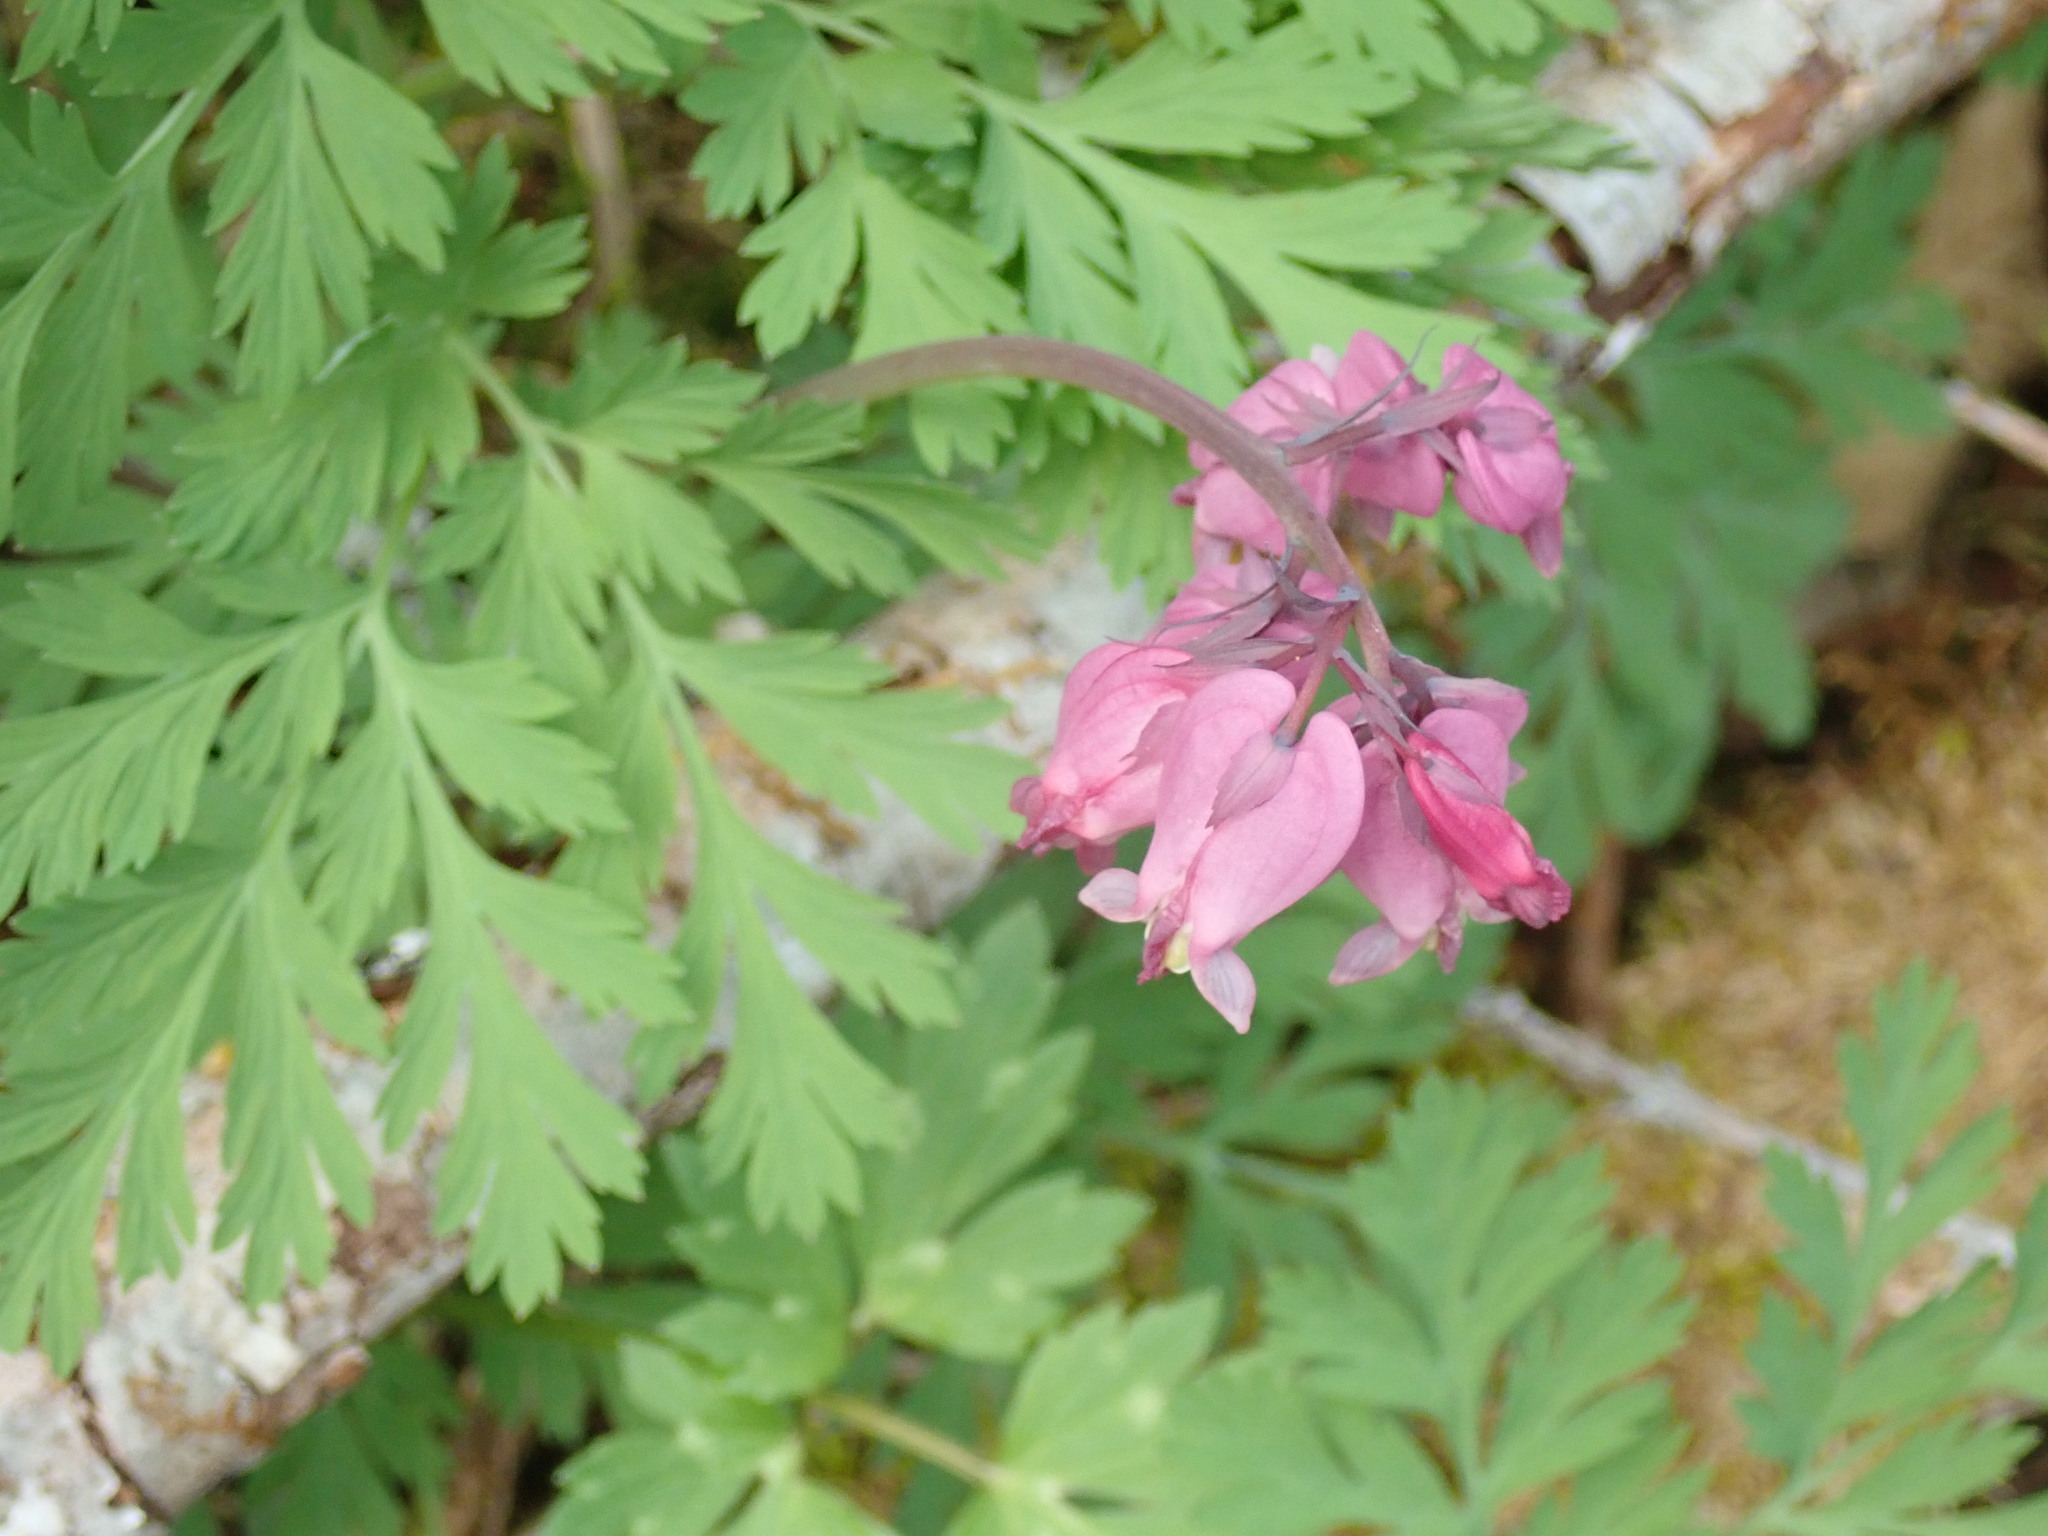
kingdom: Plantae
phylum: Tracheophyta
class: Magnoliopsida
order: Ranunculales
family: Papaveraceae
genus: Dicentra
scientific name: Dicentra formosa
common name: Bleeding-heart
